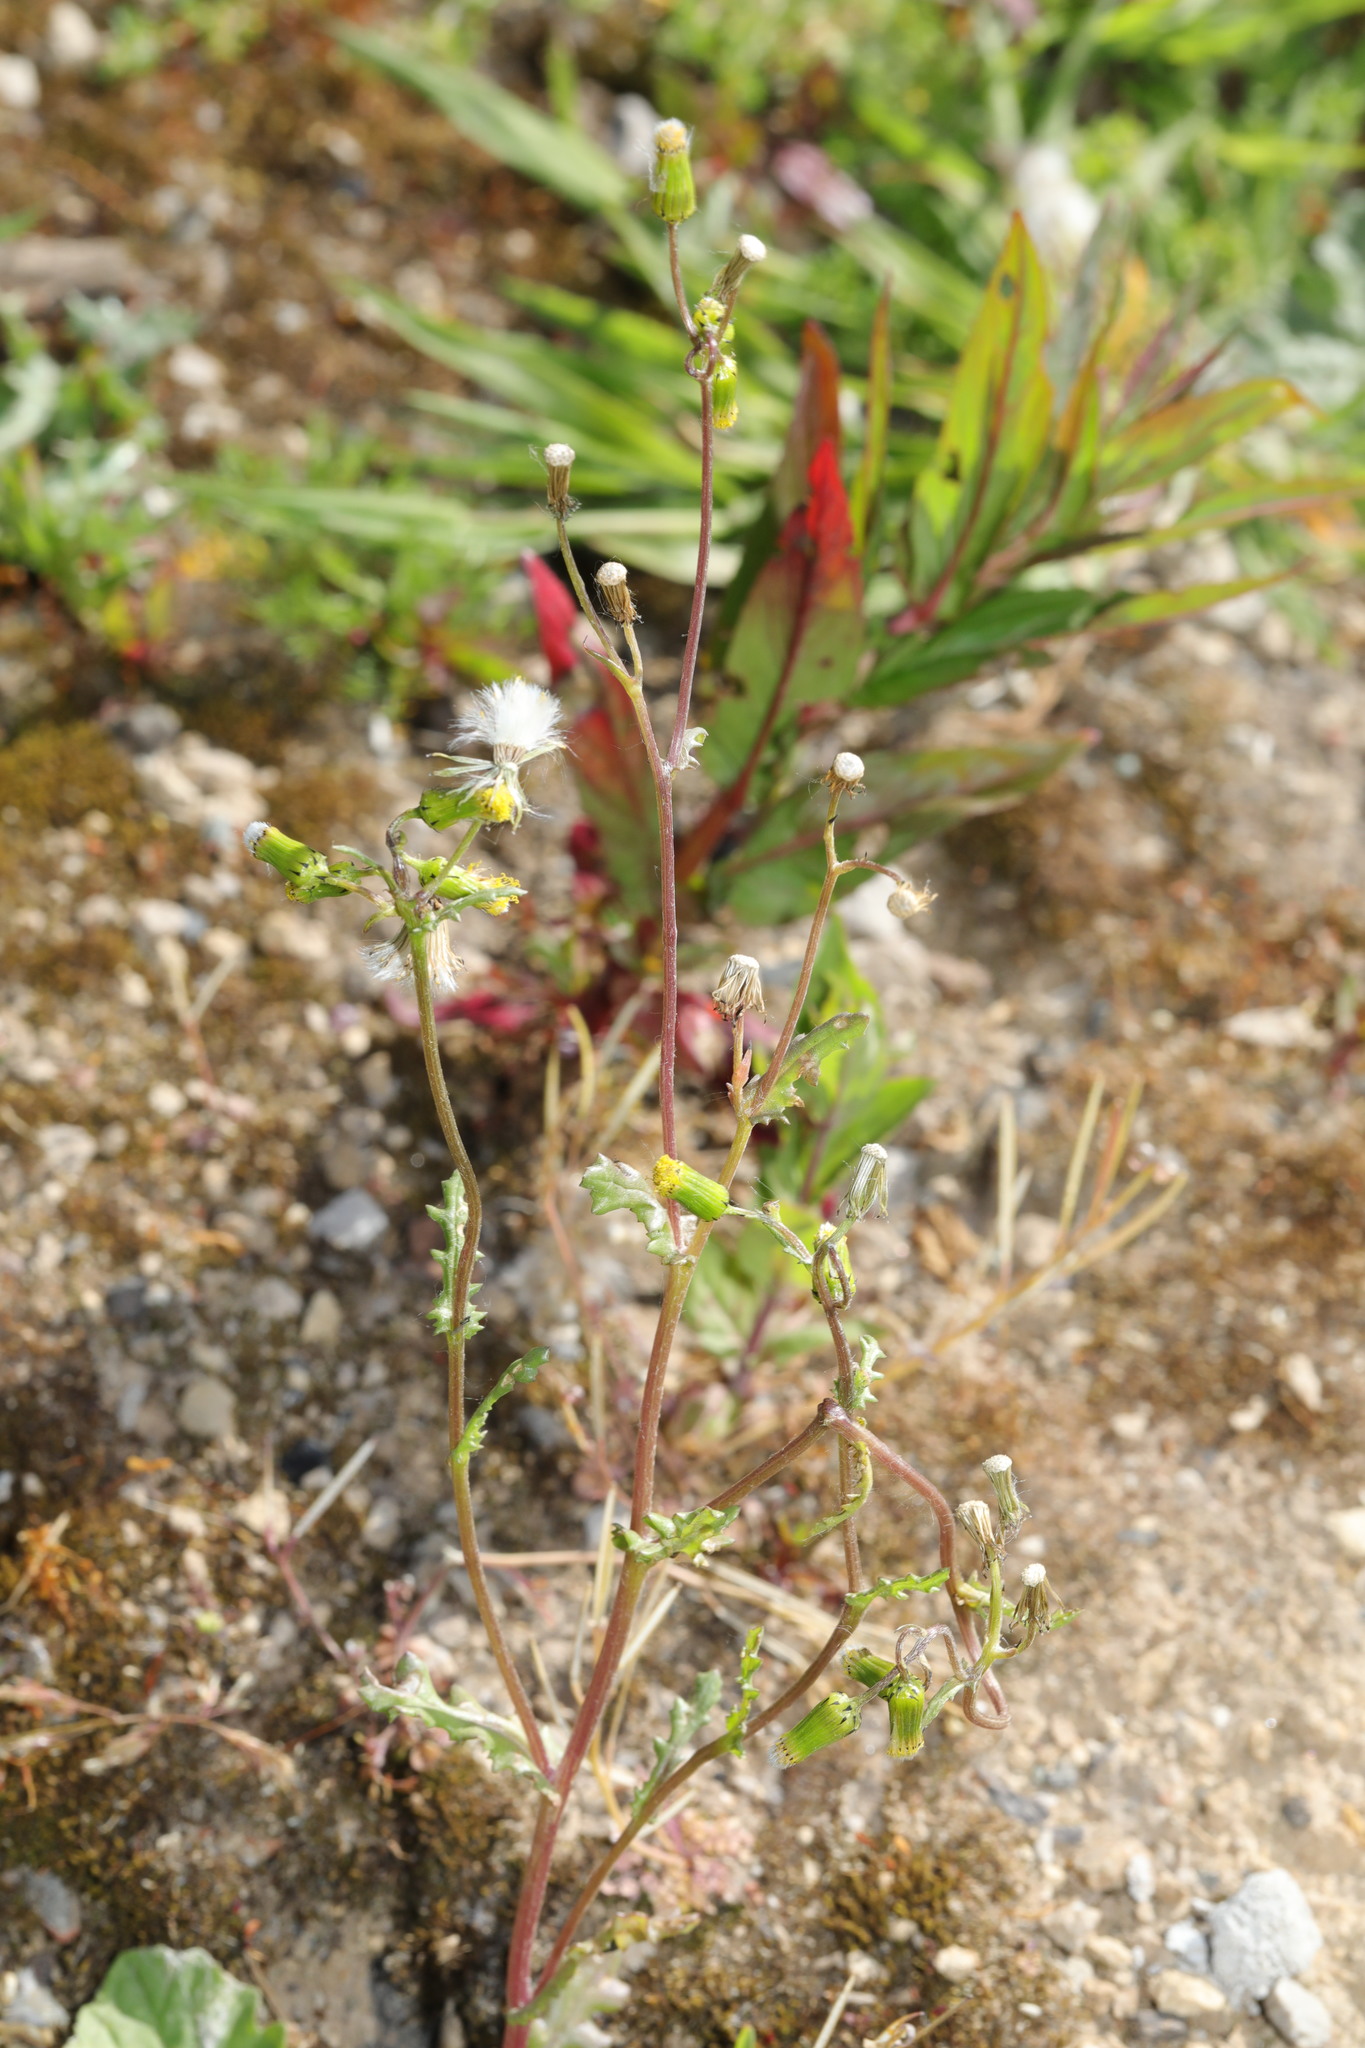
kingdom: Plantae
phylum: Tracheophyta
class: Magnoliopsida
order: Asterales
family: Asteraceae
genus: Senecio
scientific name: Senecio vulgaris
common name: Old-man-in-the-spring
